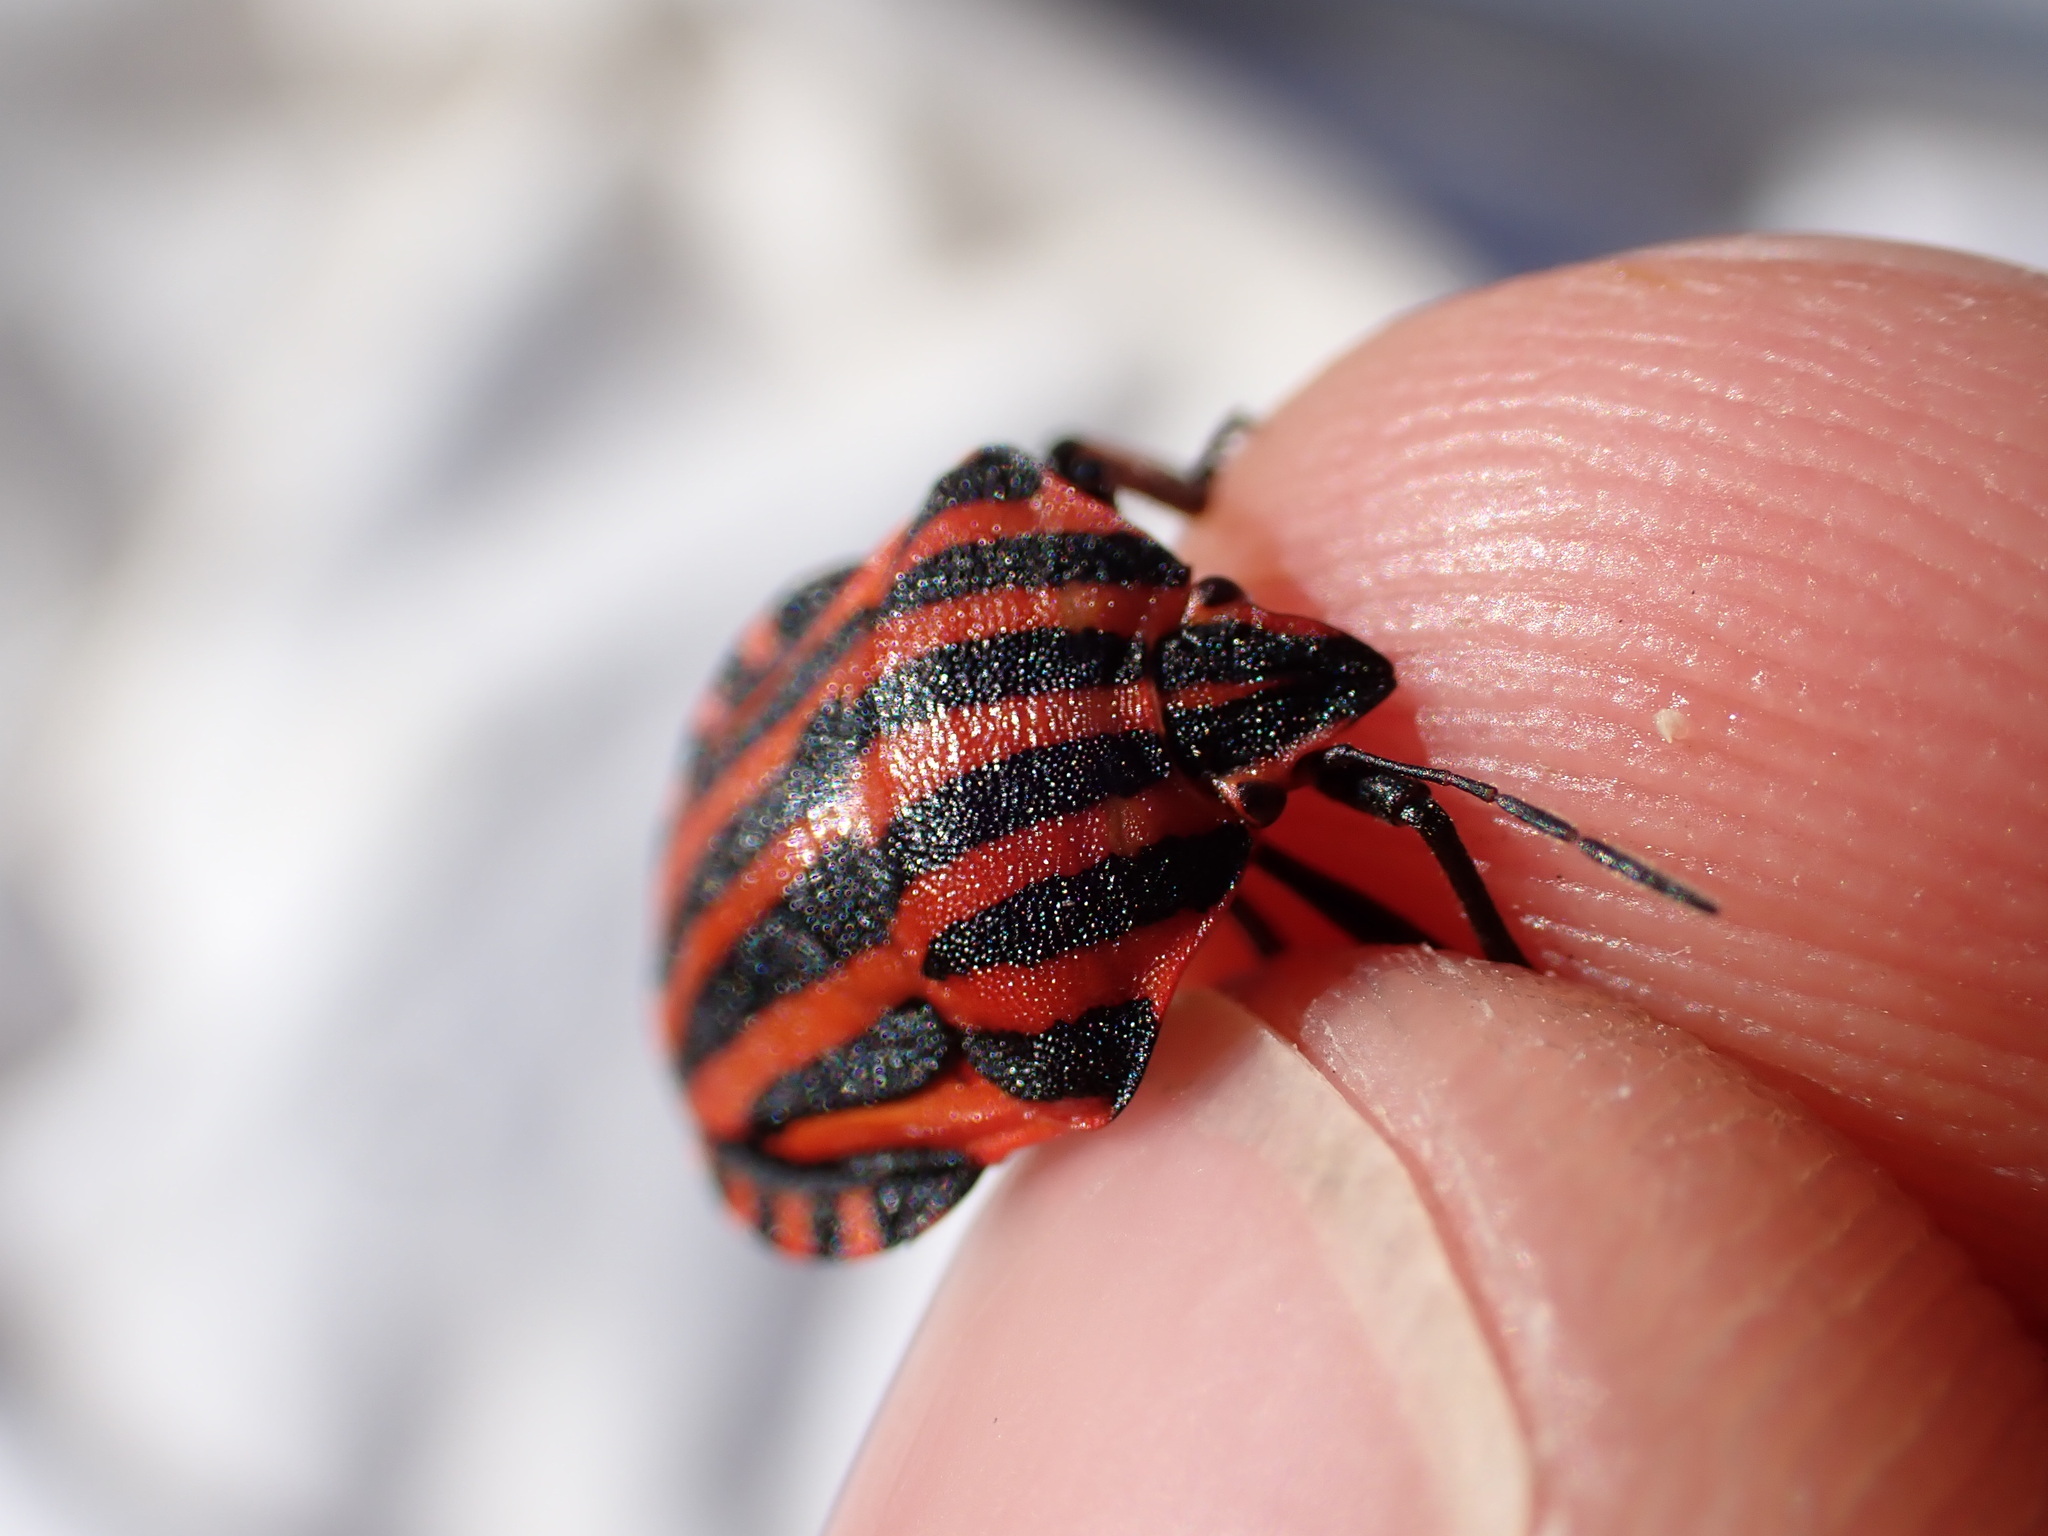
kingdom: Animalia
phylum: Arthropoda
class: Insecta
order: Hemiptera
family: Pentatomidae
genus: Graphosoma
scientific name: Graphosoma italicum
